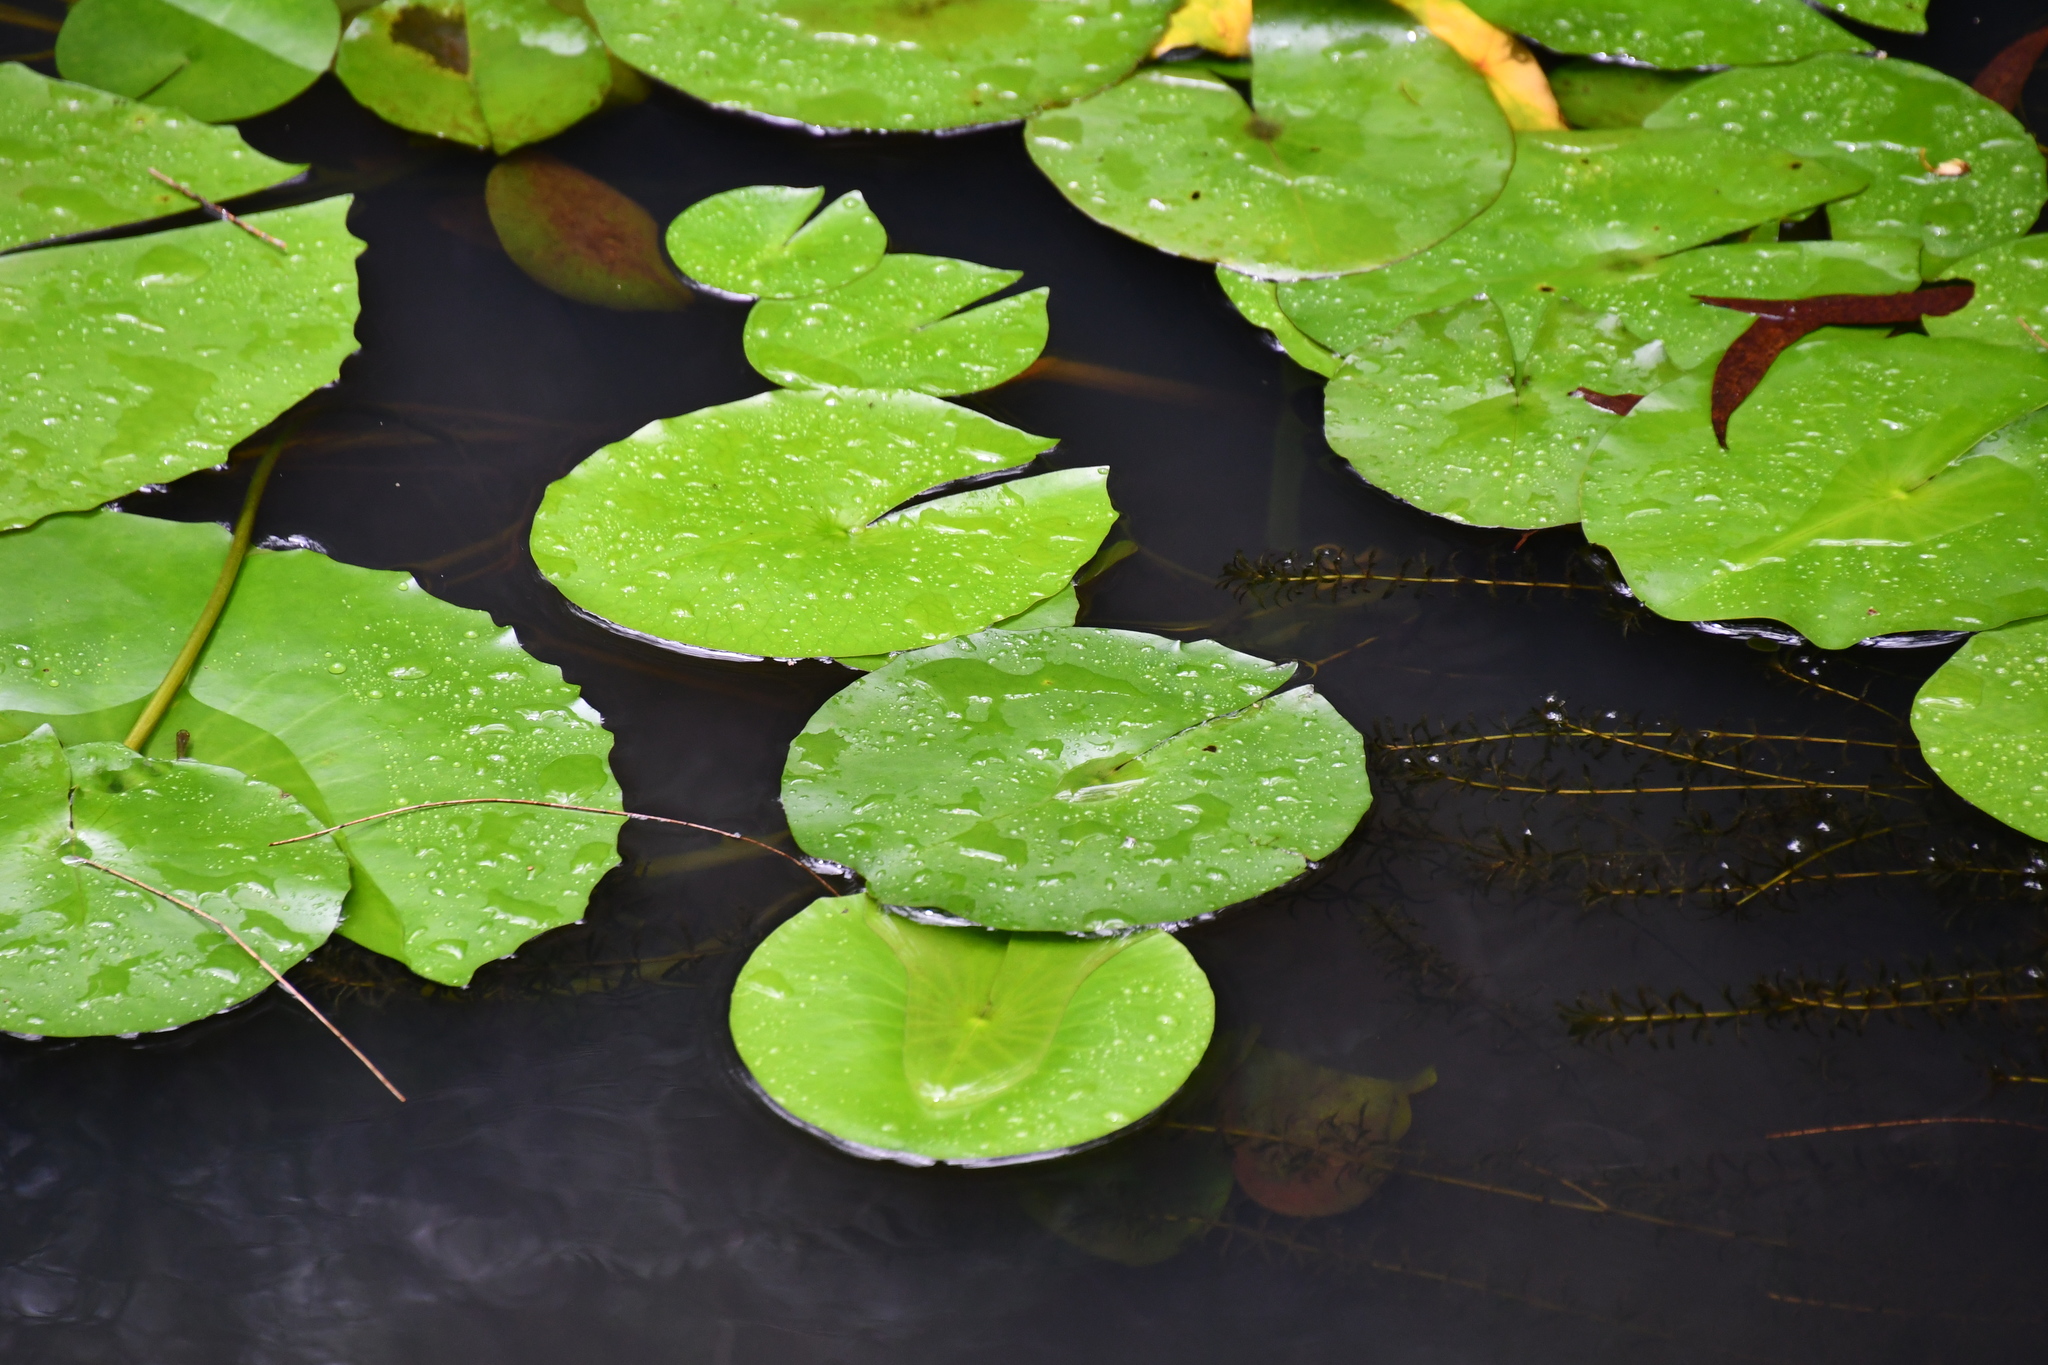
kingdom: Plantae
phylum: Tracheophyta
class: Magnoliopsida
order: Nymphaeales
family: Nymphaeaceae
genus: Nymphaea
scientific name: Nymphaea nouchali
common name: Blue lotus
